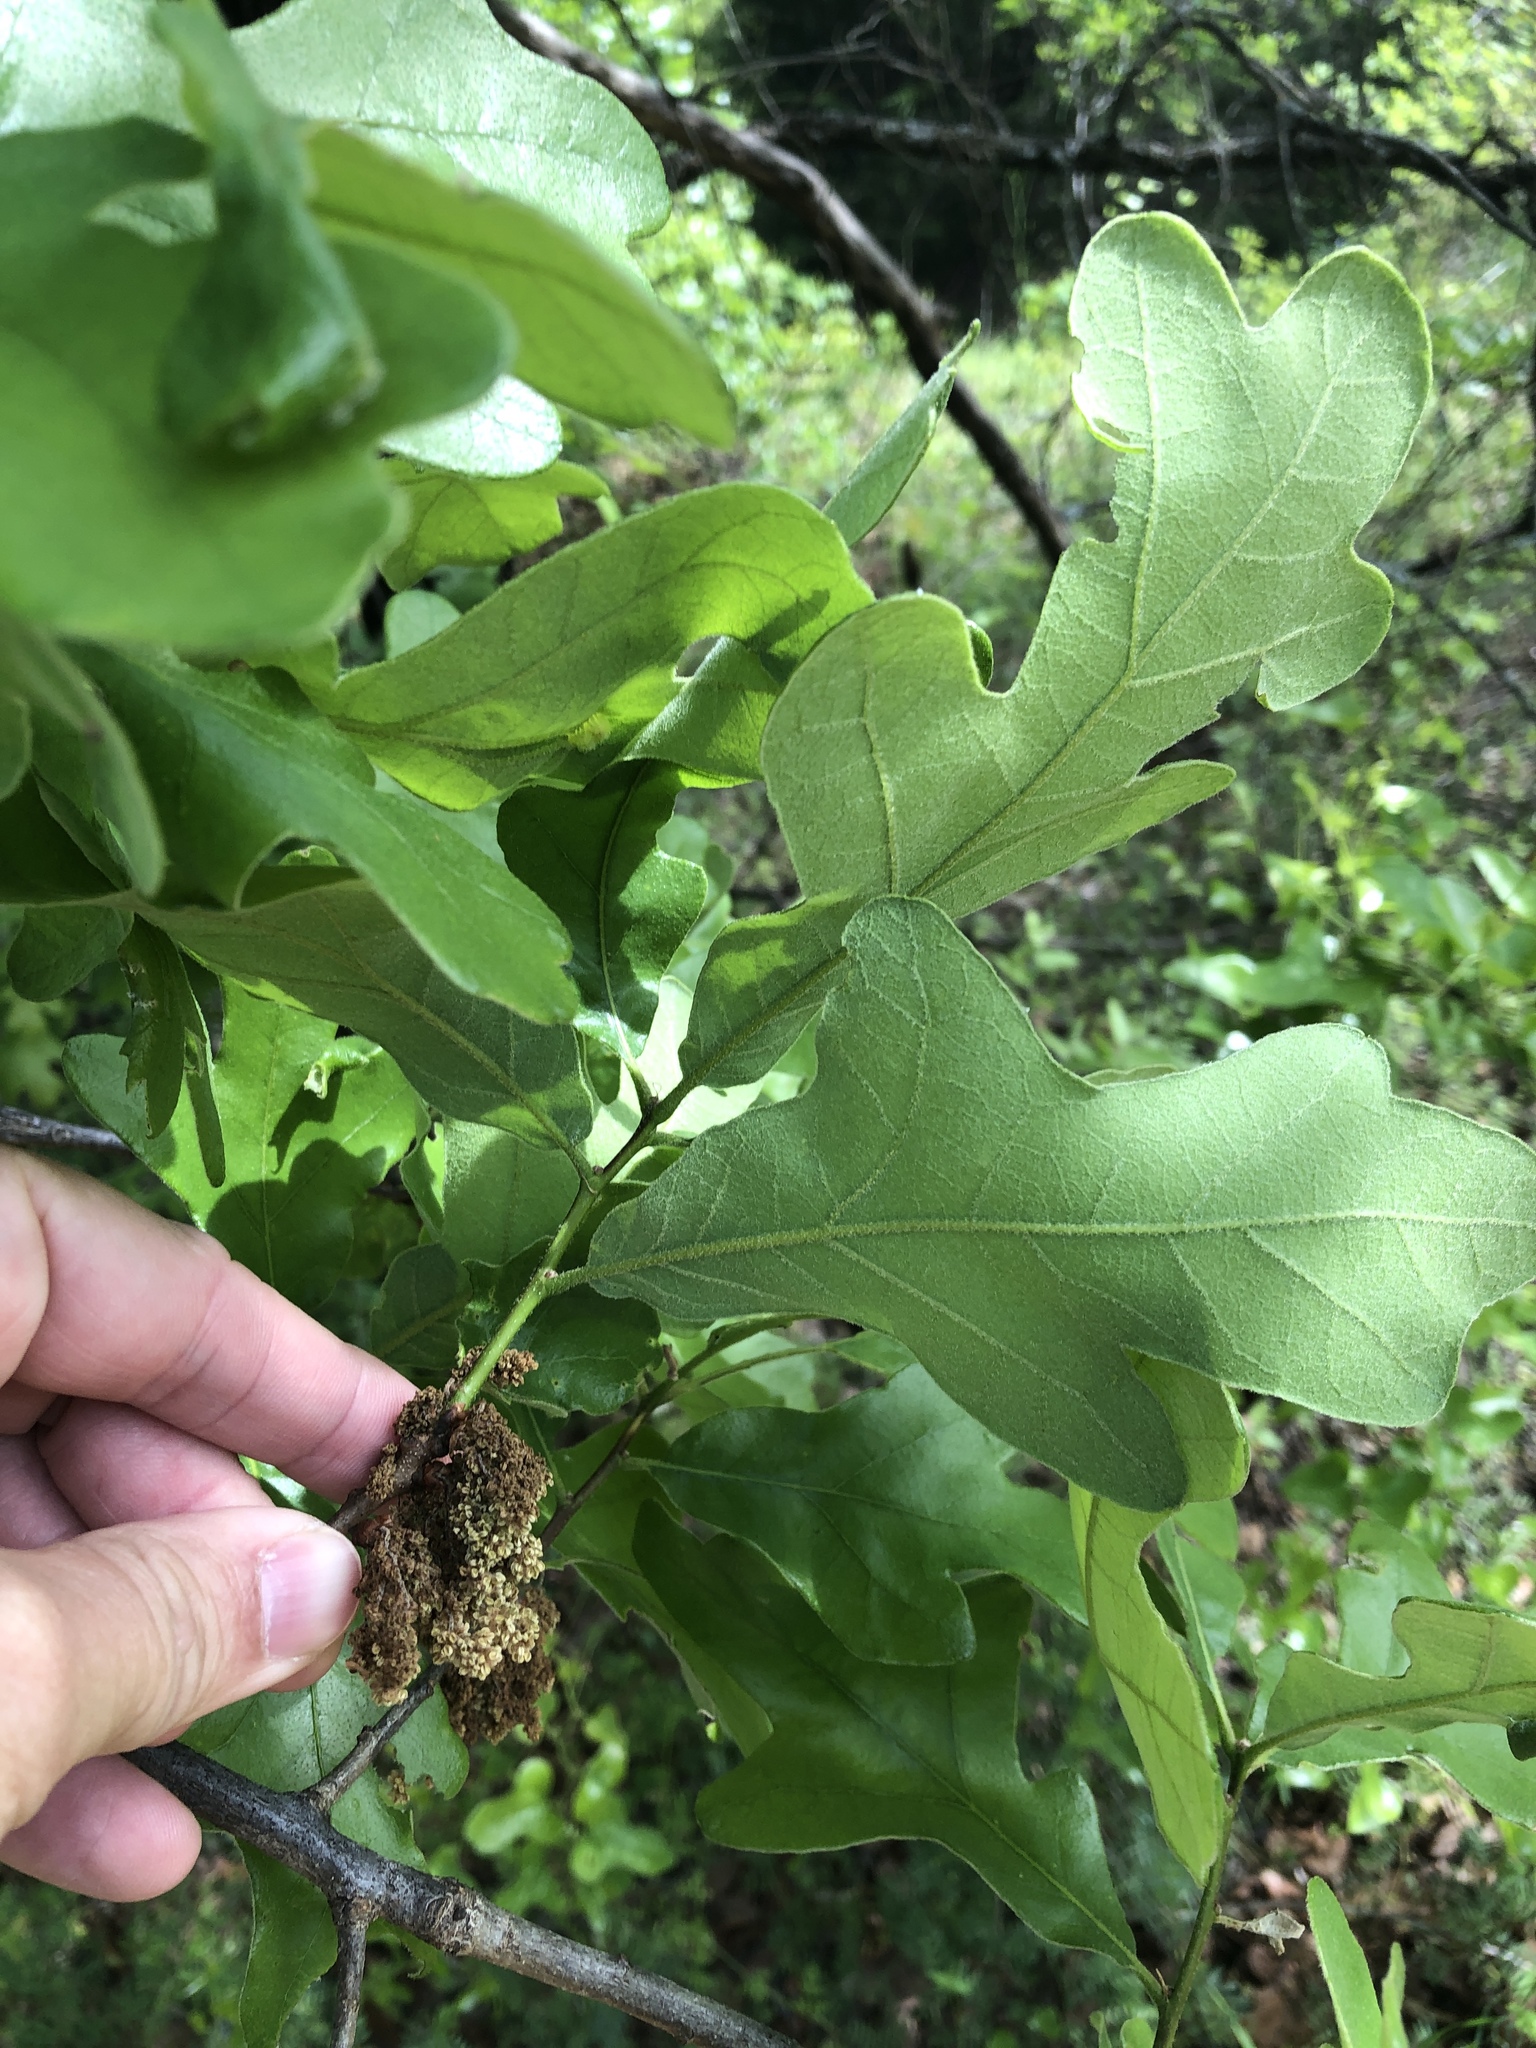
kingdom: Plantae
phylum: Tracheophyta
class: Magnoliopsida
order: Fagales
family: Fagaceae
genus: Quercus
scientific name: Quercus stellata
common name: Post oak
